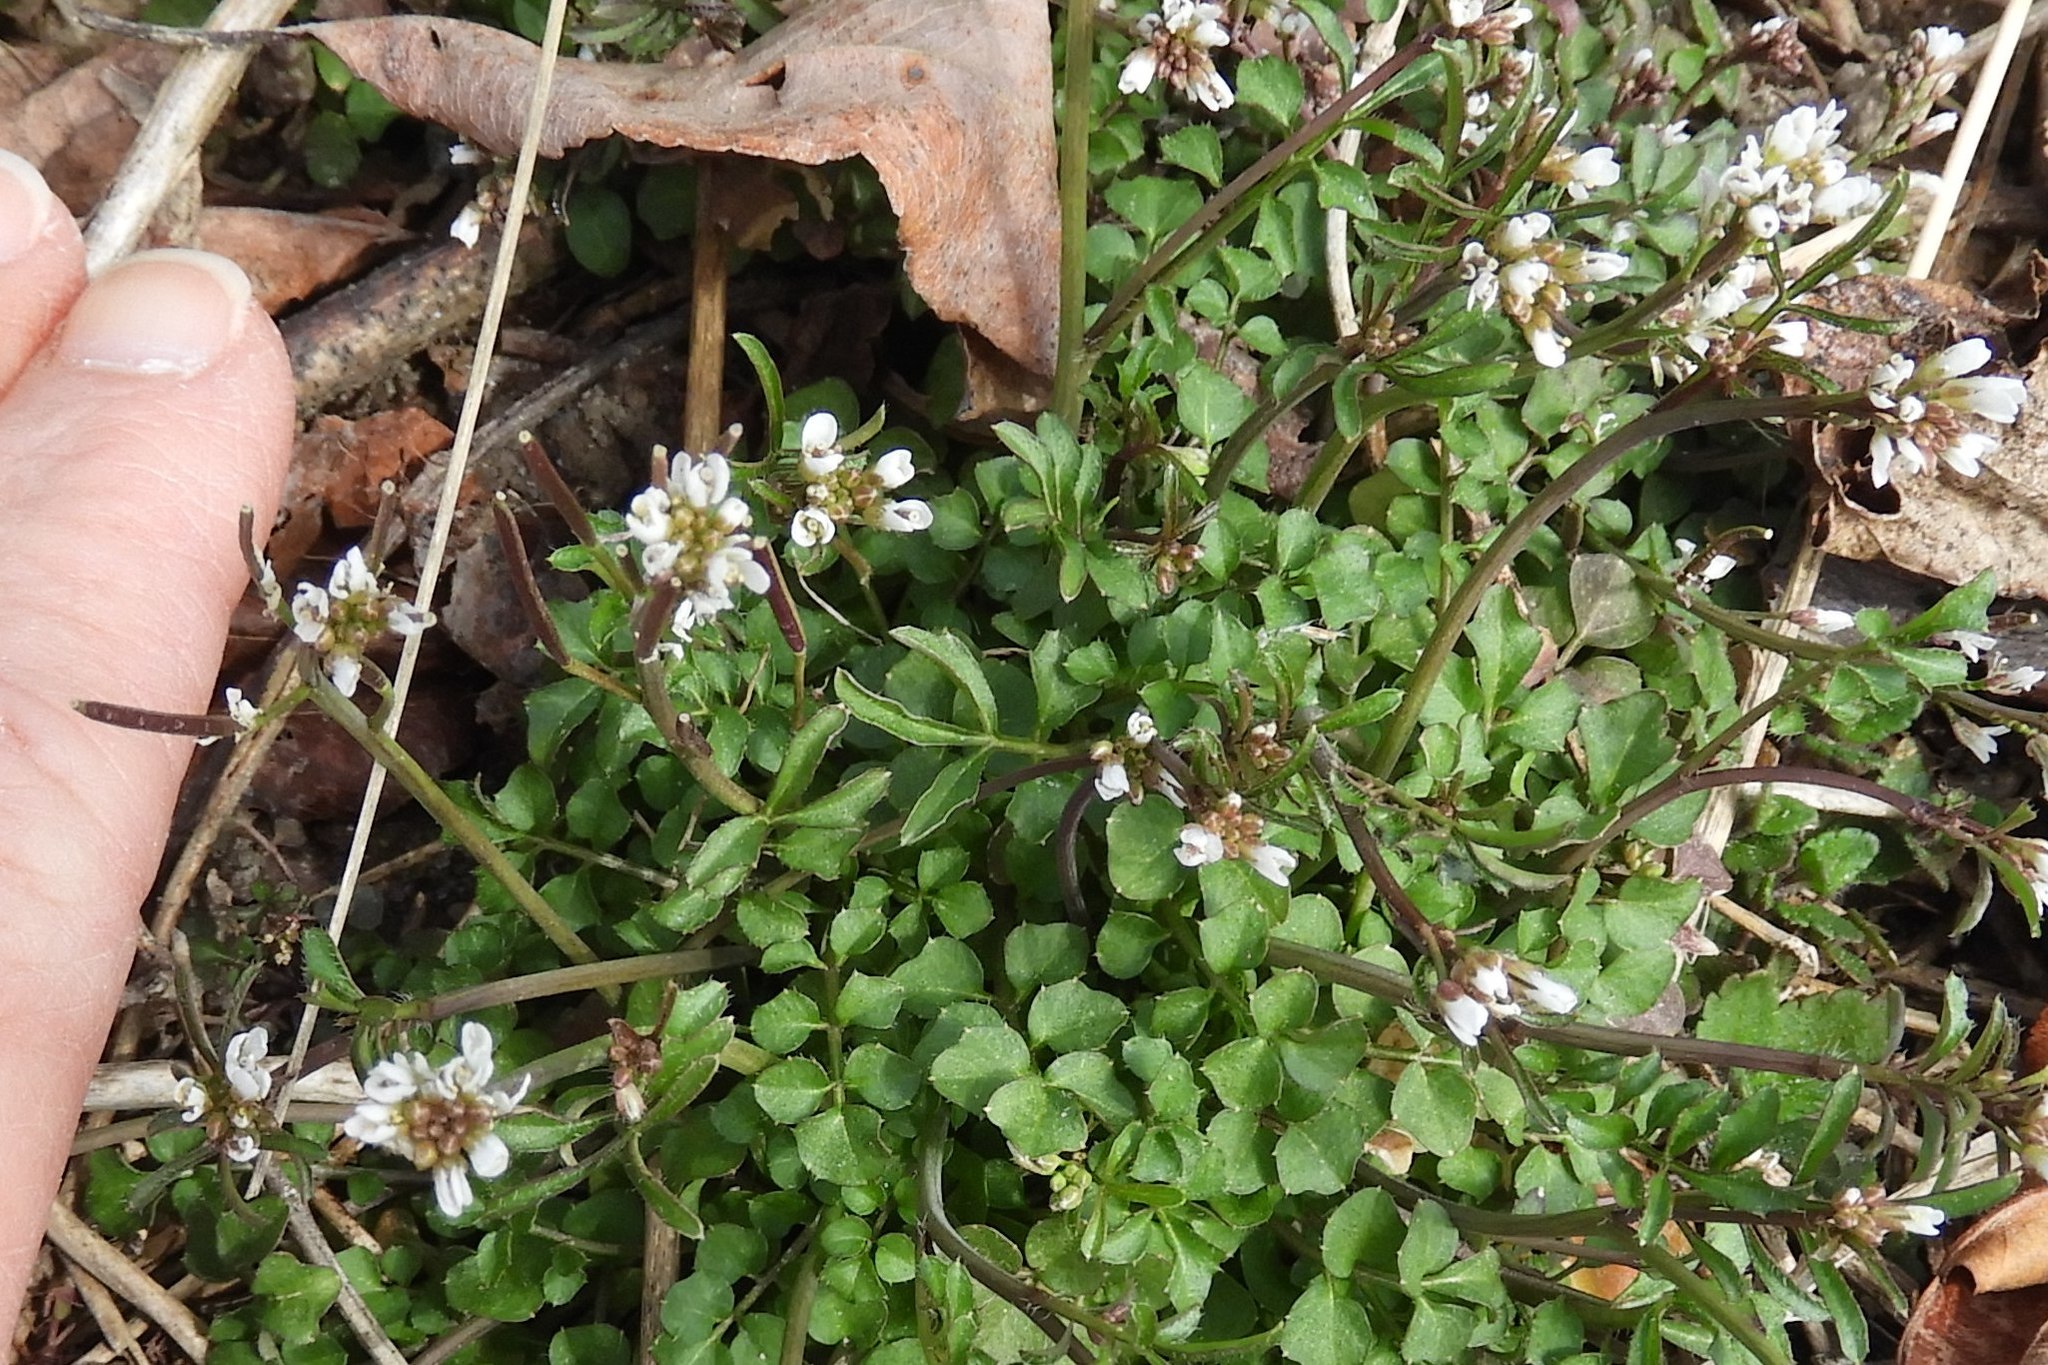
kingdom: Plantae
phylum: Tracheophyta
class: Magnoliopsida
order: Brassicales
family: Brassicaceae
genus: Cardamine
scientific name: Cardamine hirsuta
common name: Hairy bittercress
